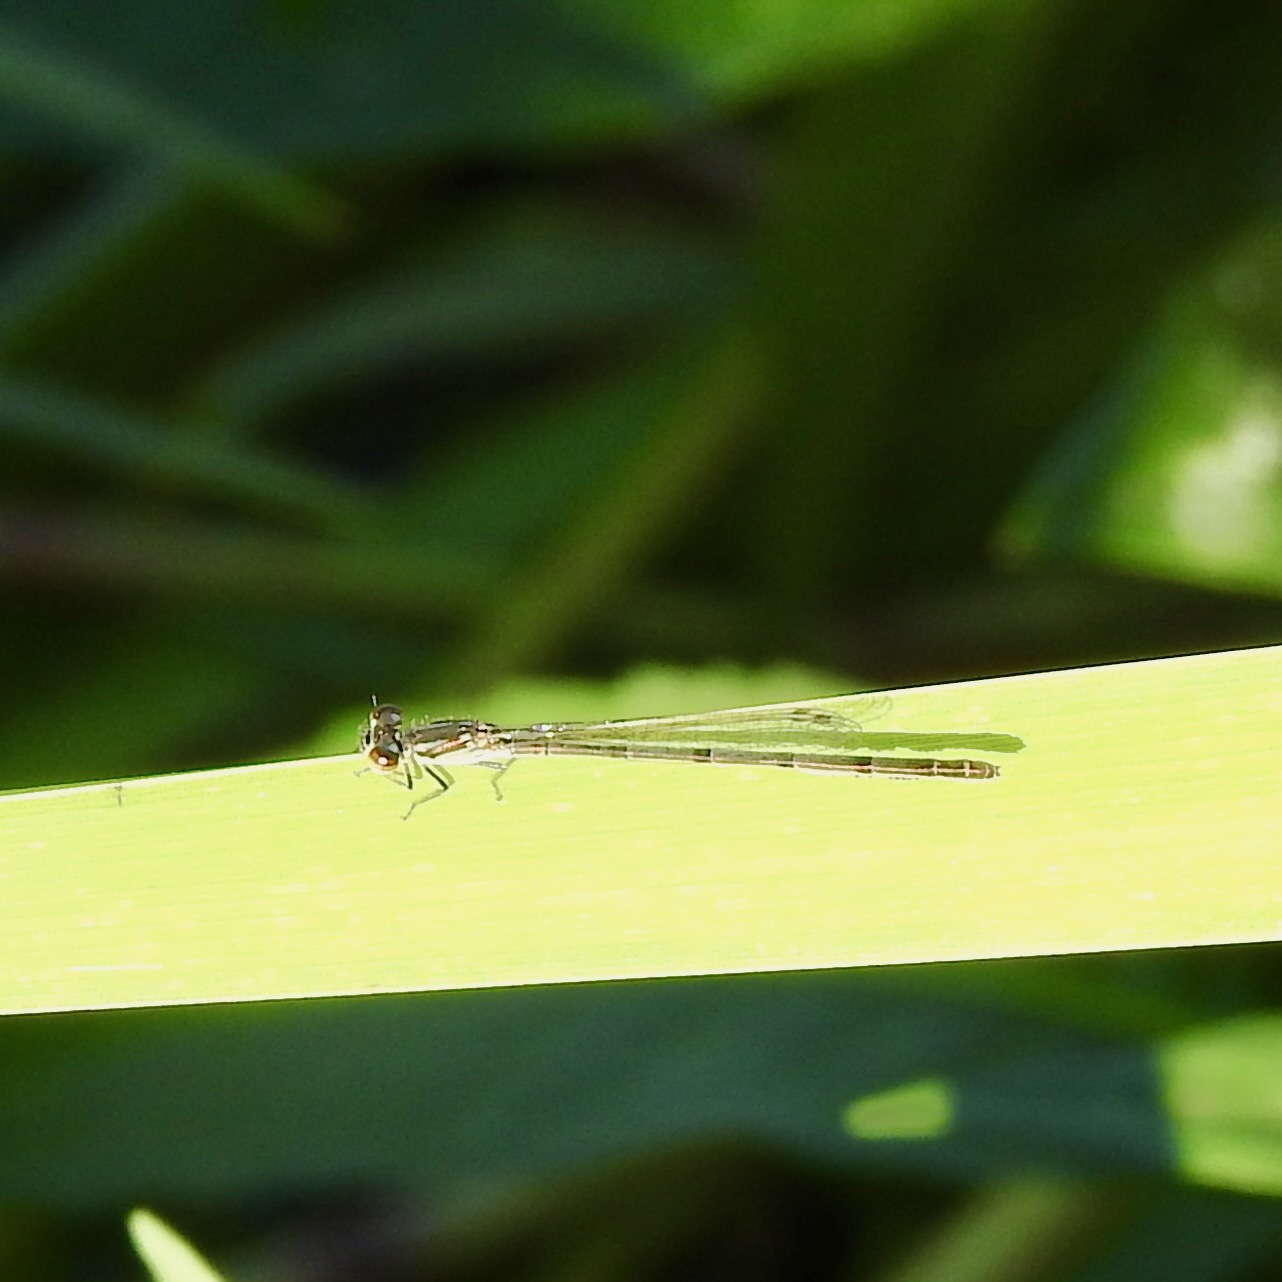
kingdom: Animalia
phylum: Arthropoda
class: Insecta
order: Odonata
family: Coenagrionidae
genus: Ischnura
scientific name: Ischnura posita
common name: Fragile forktail
